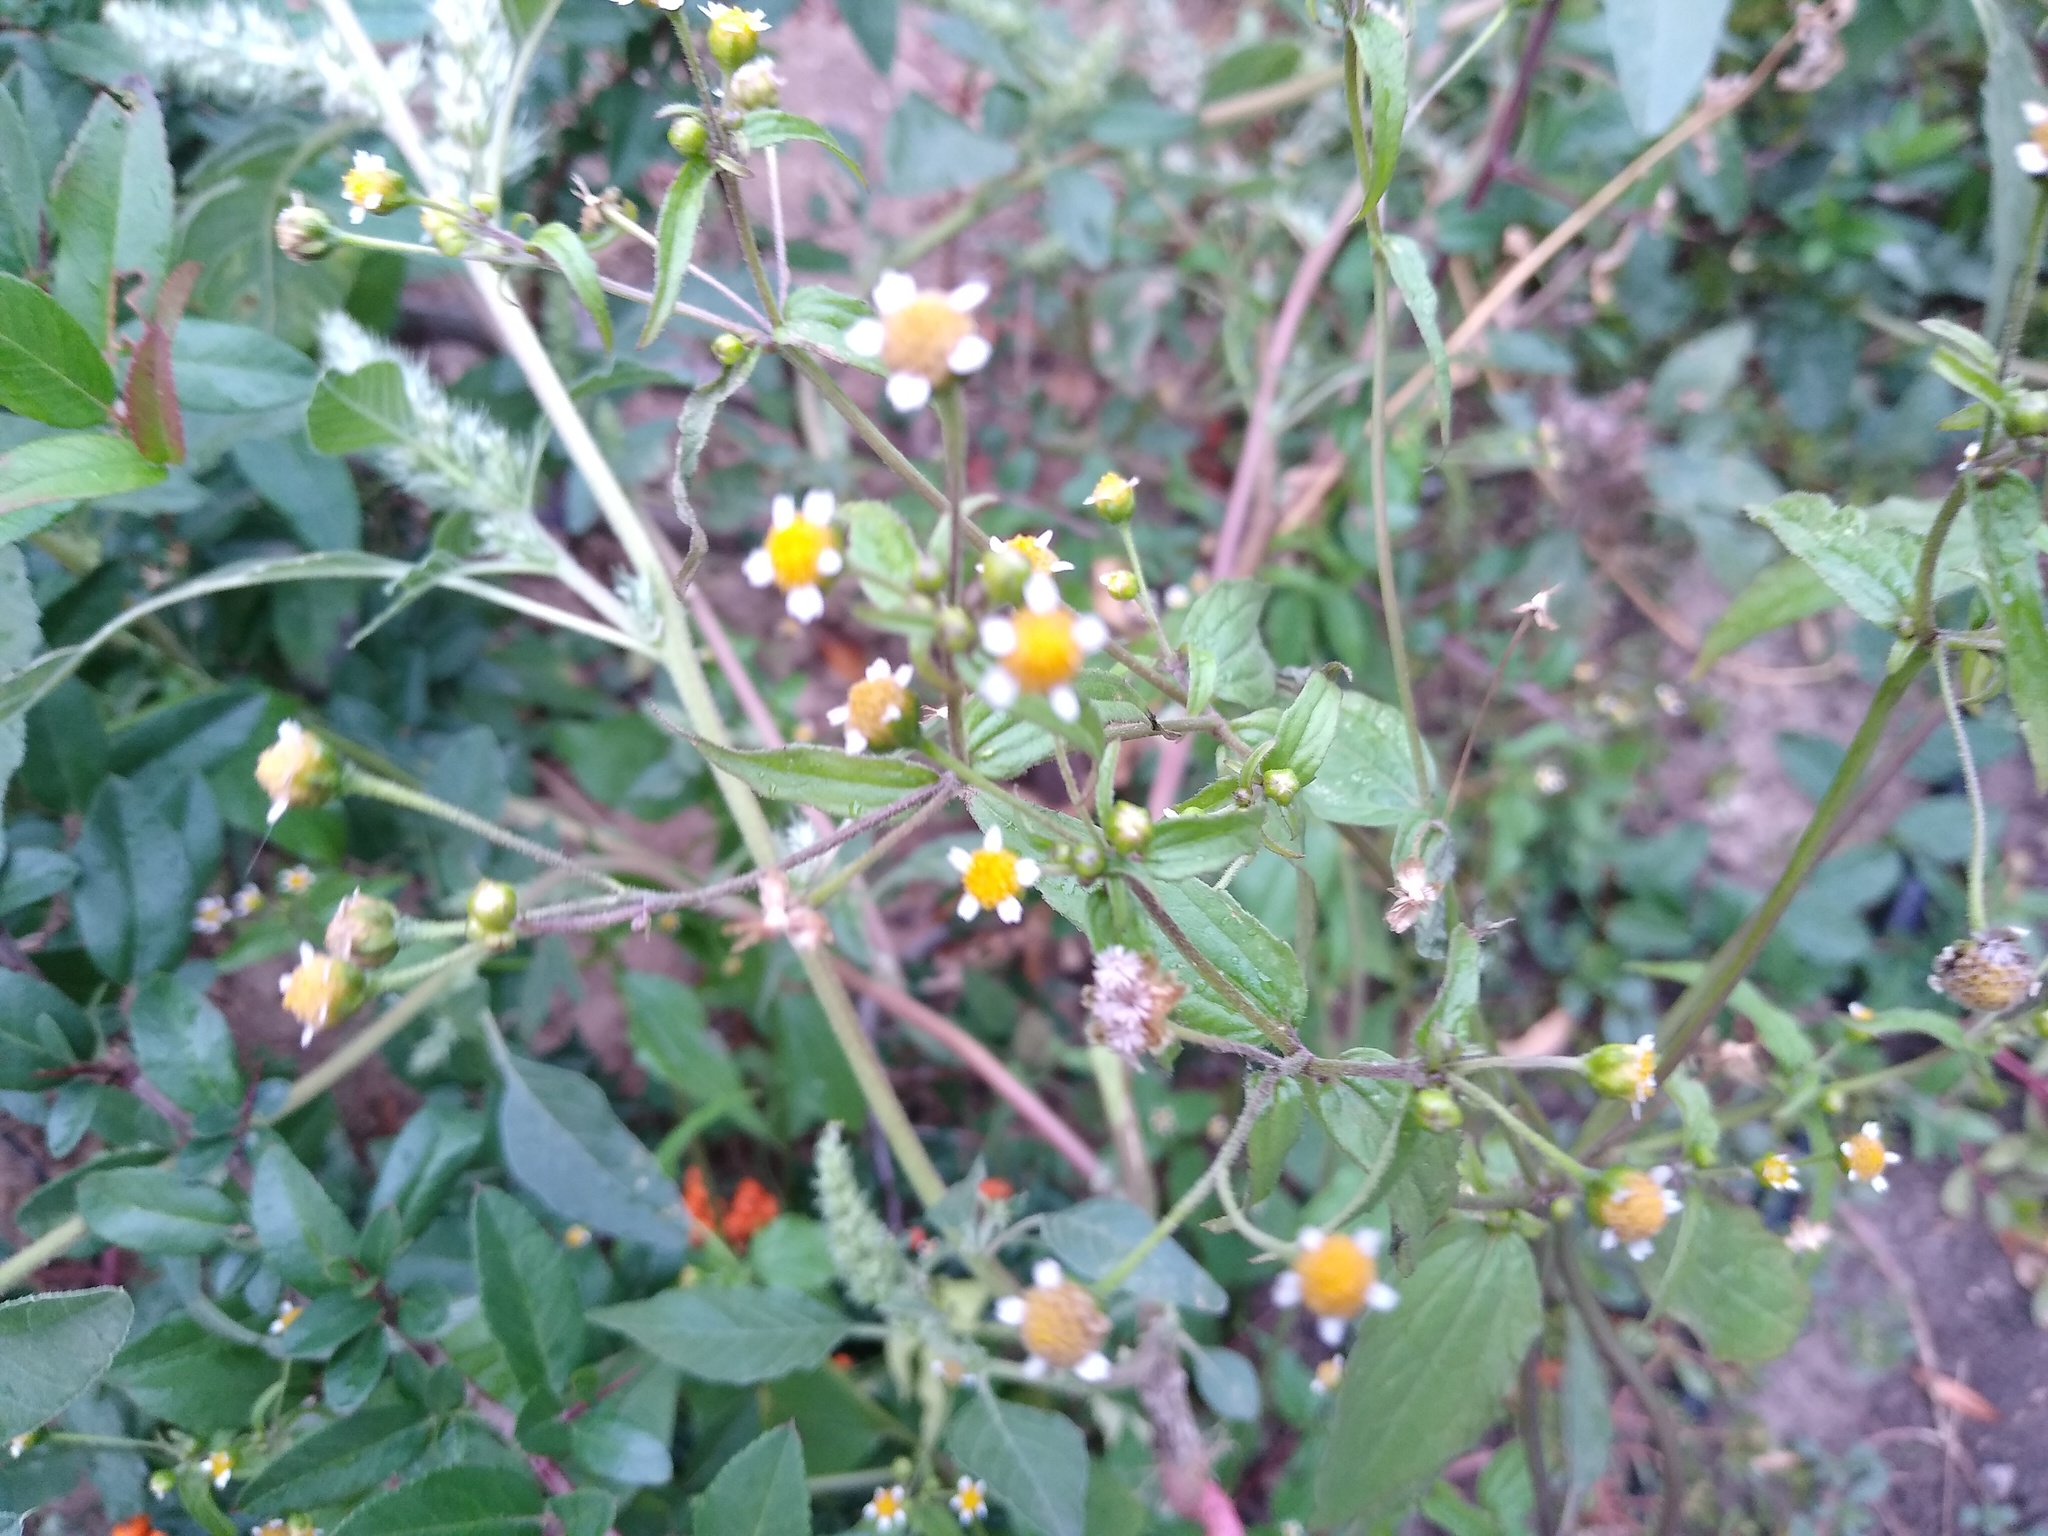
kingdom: Plantae
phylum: Tracheophyta
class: Magnoliopsida
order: Asterales
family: Asteraceae
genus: Galinsoga
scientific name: Galinsoga parviflora
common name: Gallant soldier
